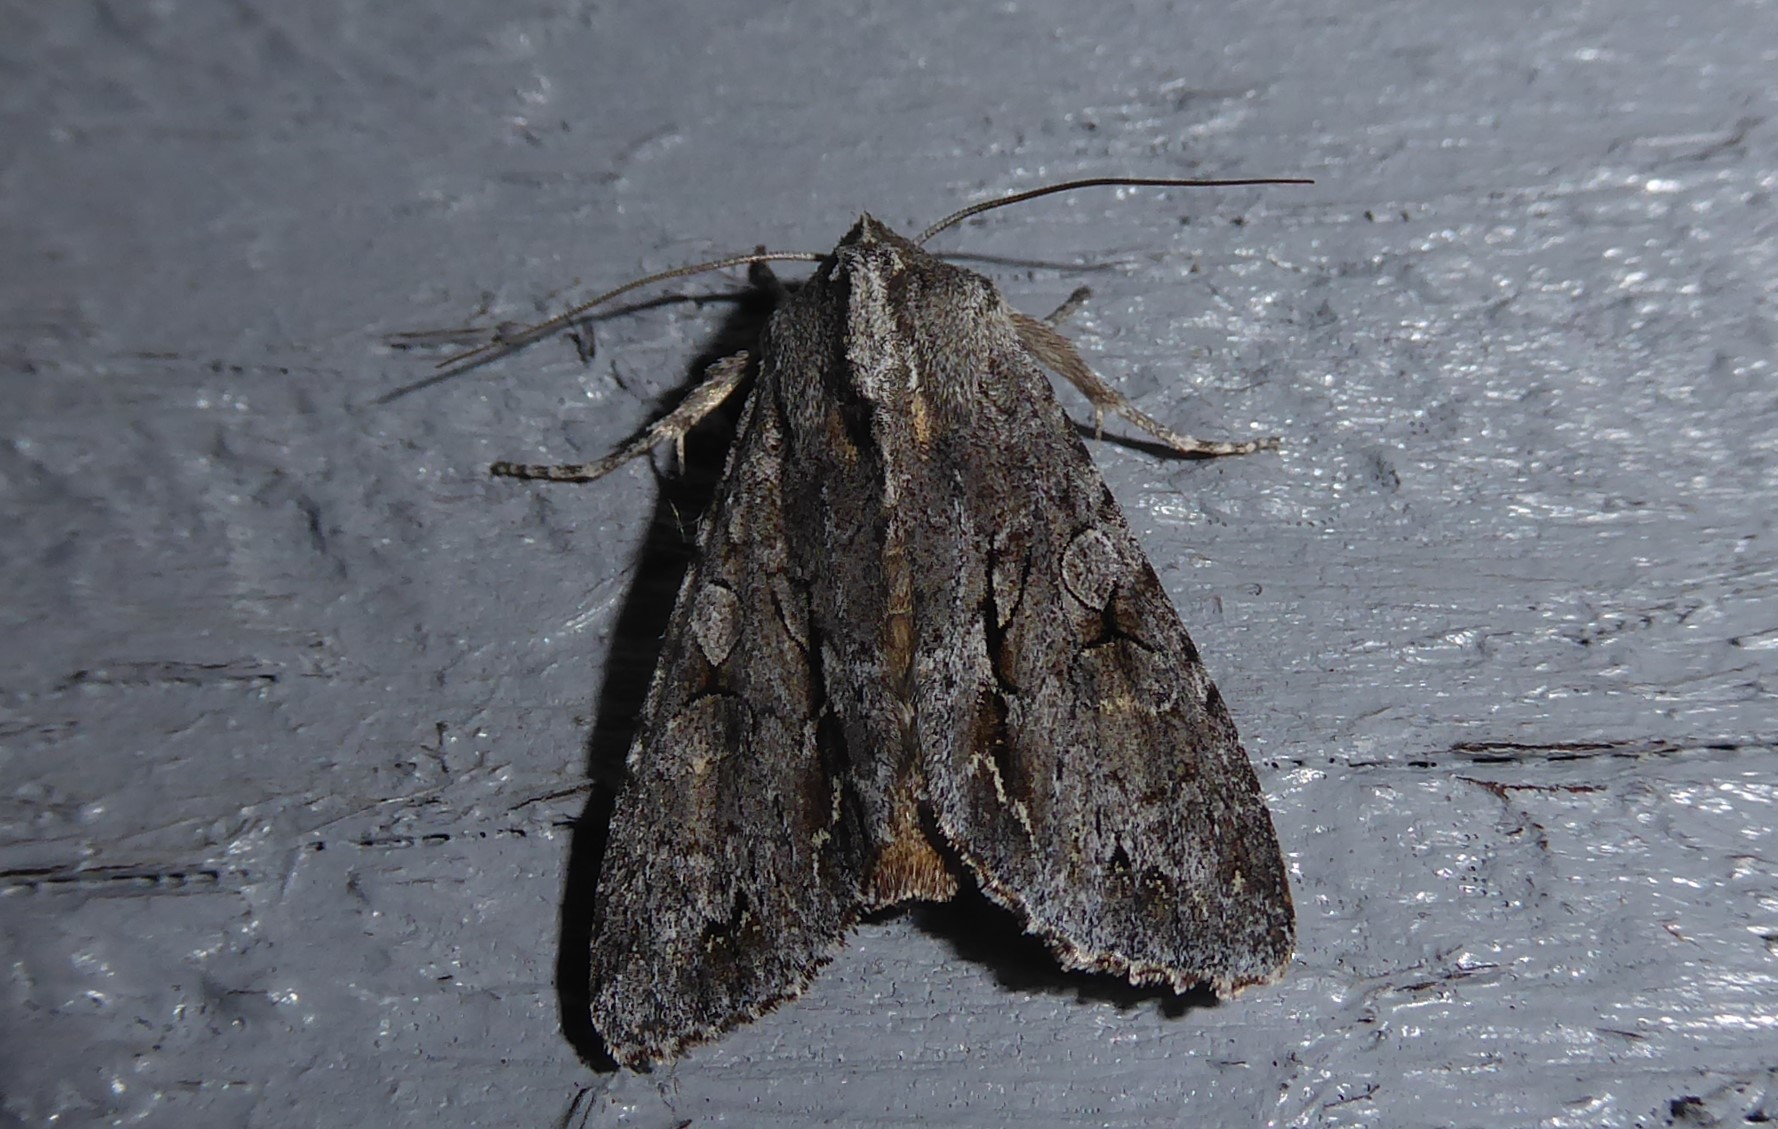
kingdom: Animalia
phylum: Arthropoda
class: Insecta
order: Lepidoptera
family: Noctuidae
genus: Ichneutica
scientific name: Ichneutica
